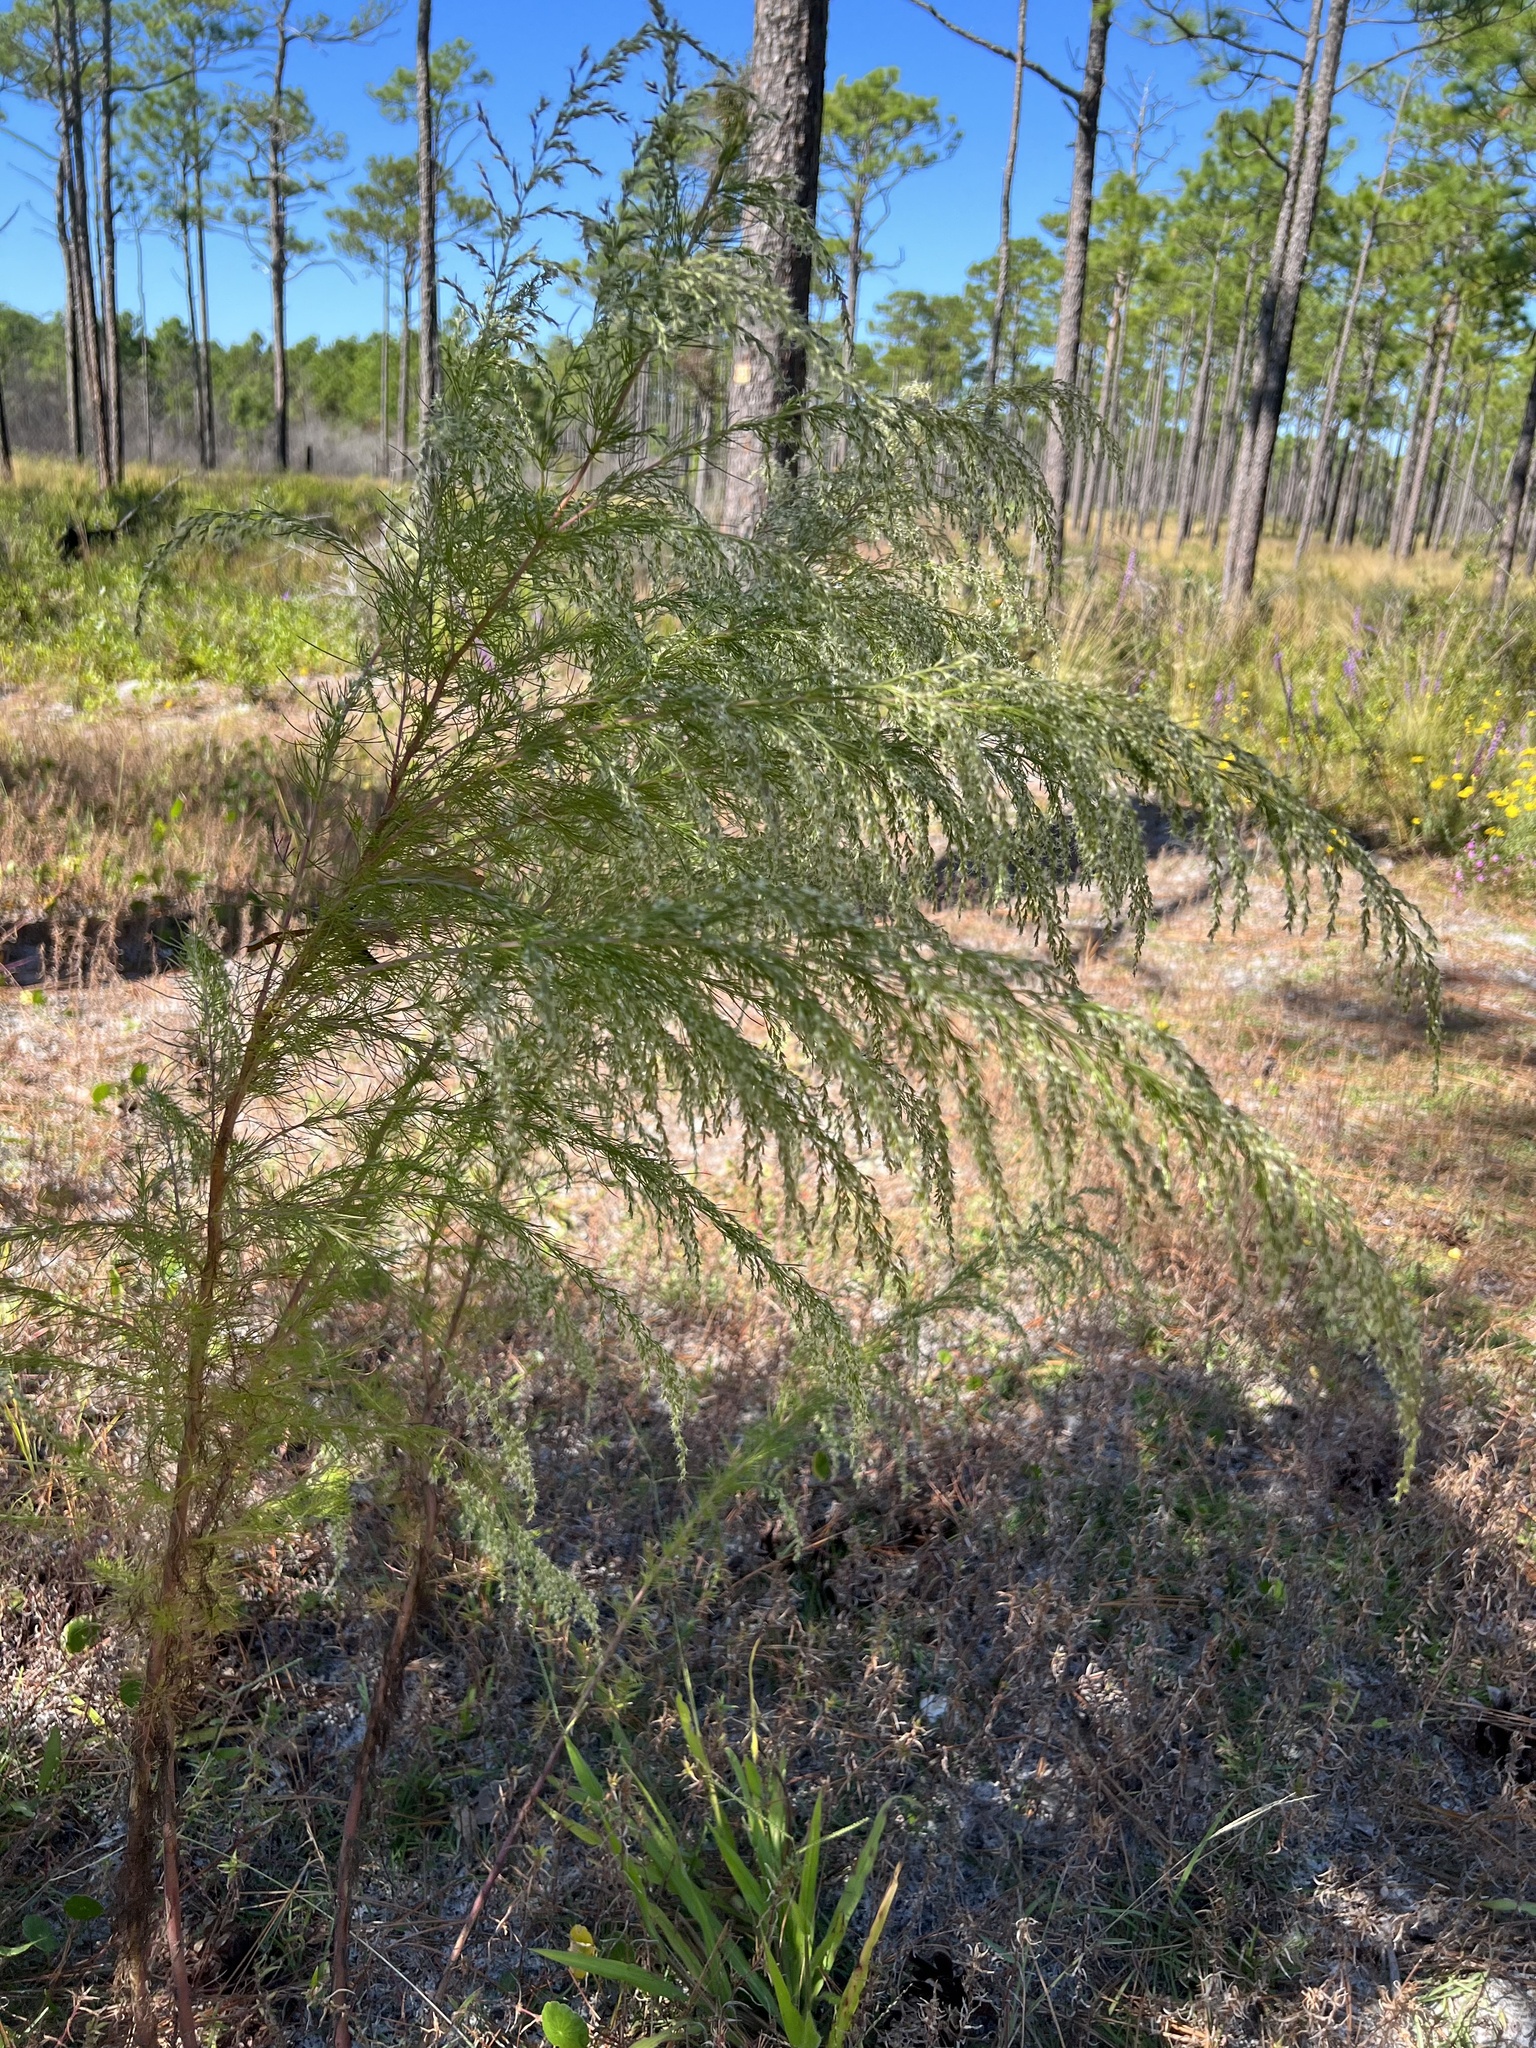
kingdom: Plantae
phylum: Tracheophyta
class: Magnoliopsida
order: Asterales
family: Asteraceae
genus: Eupatorium
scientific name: Eupatorium capillifolium
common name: Dog-fennel
